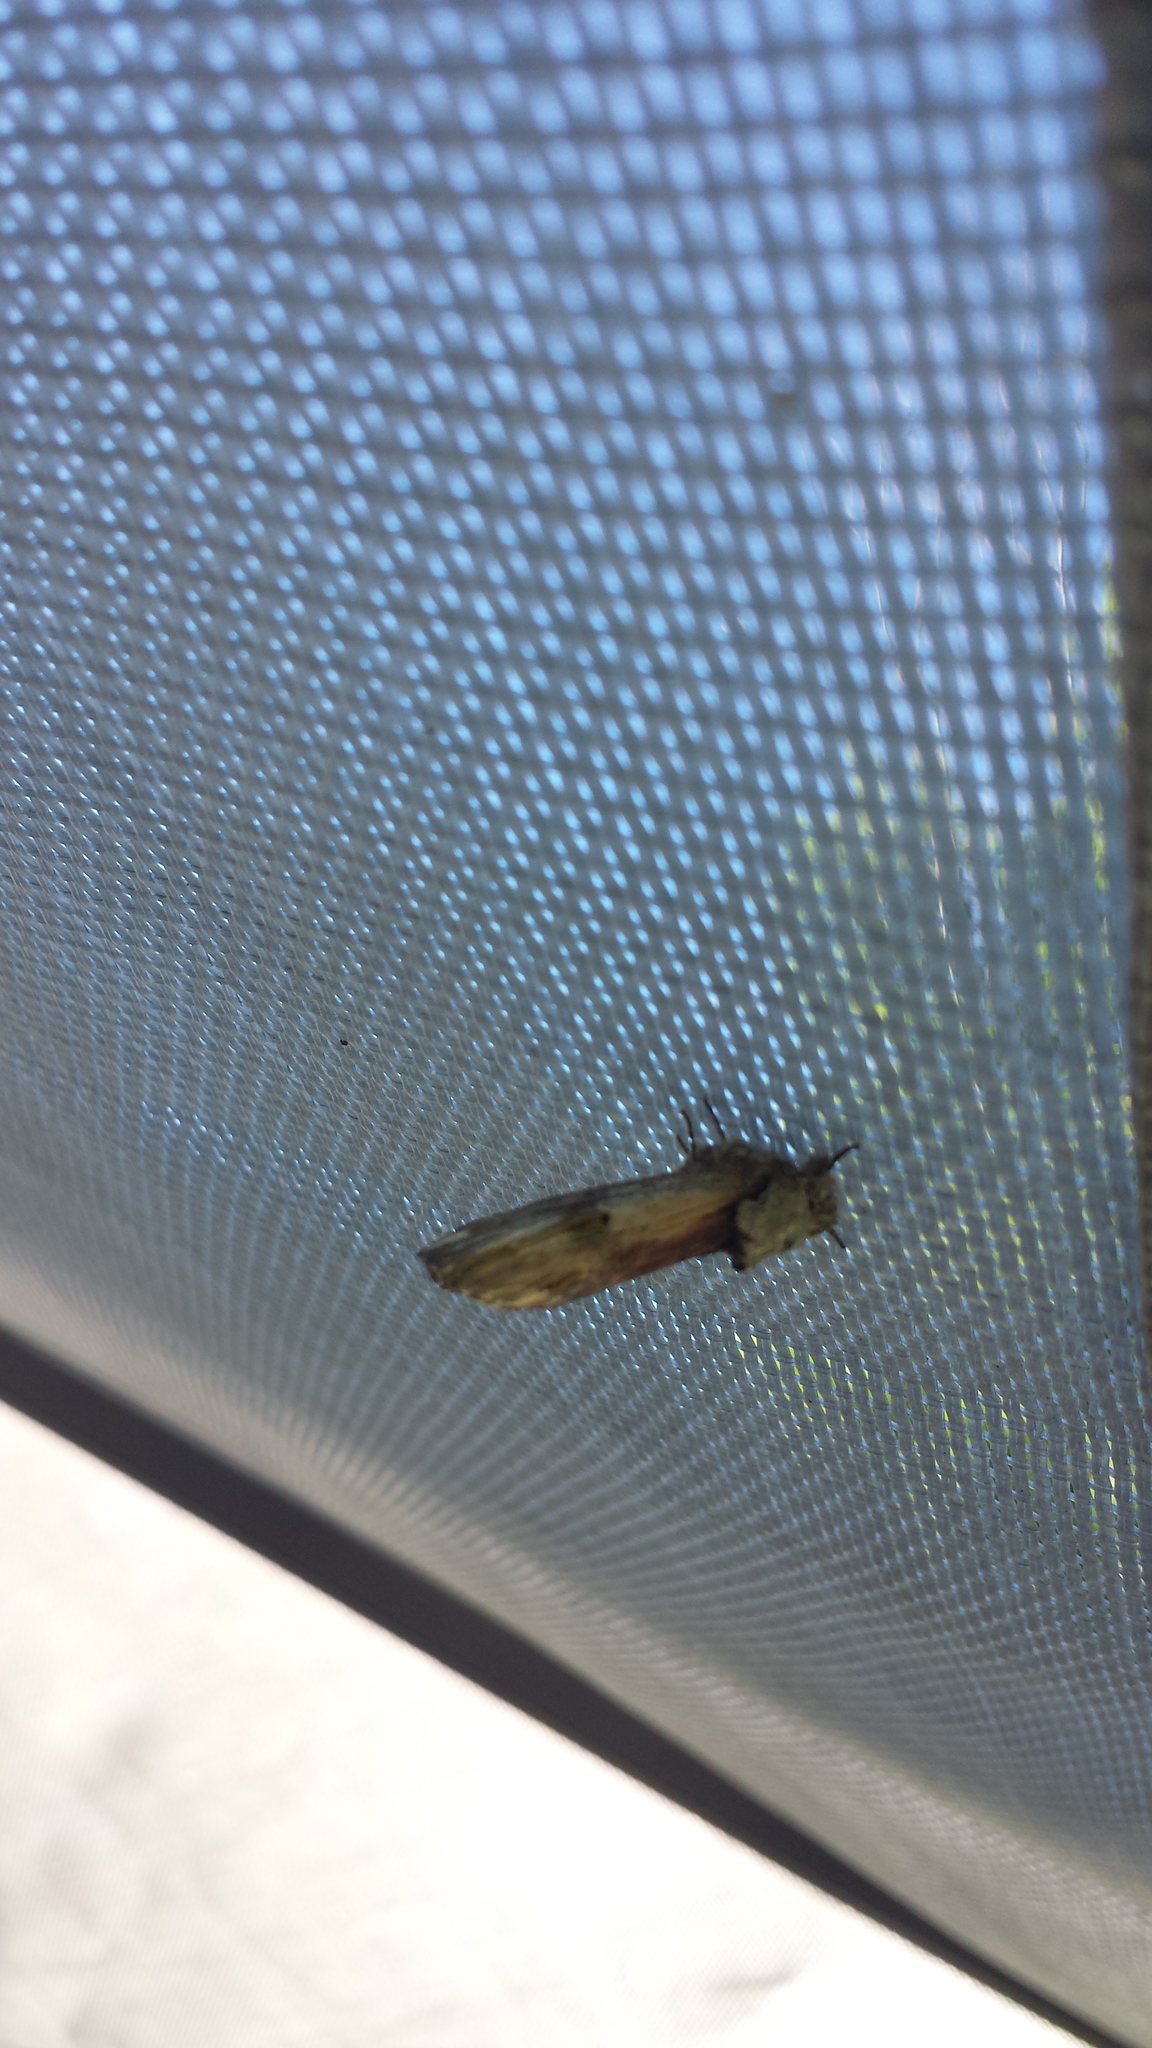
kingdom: Animalia
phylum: Arthropoda
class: Insecta
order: Lepidoptera
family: Notodontidae
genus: Schizura
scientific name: Schizura
